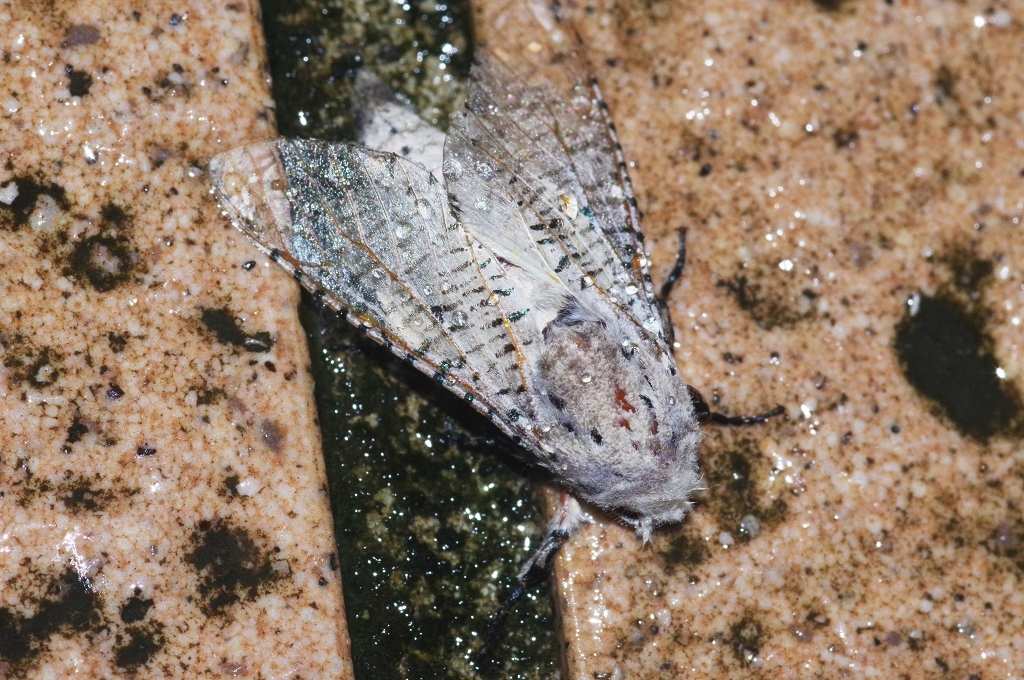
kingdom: Animalia
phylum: Arthropoda
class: Insecta
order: Lepidoptera
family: Cossidae
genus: Orientozeuzera
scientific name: Orientozeuzera caudata
